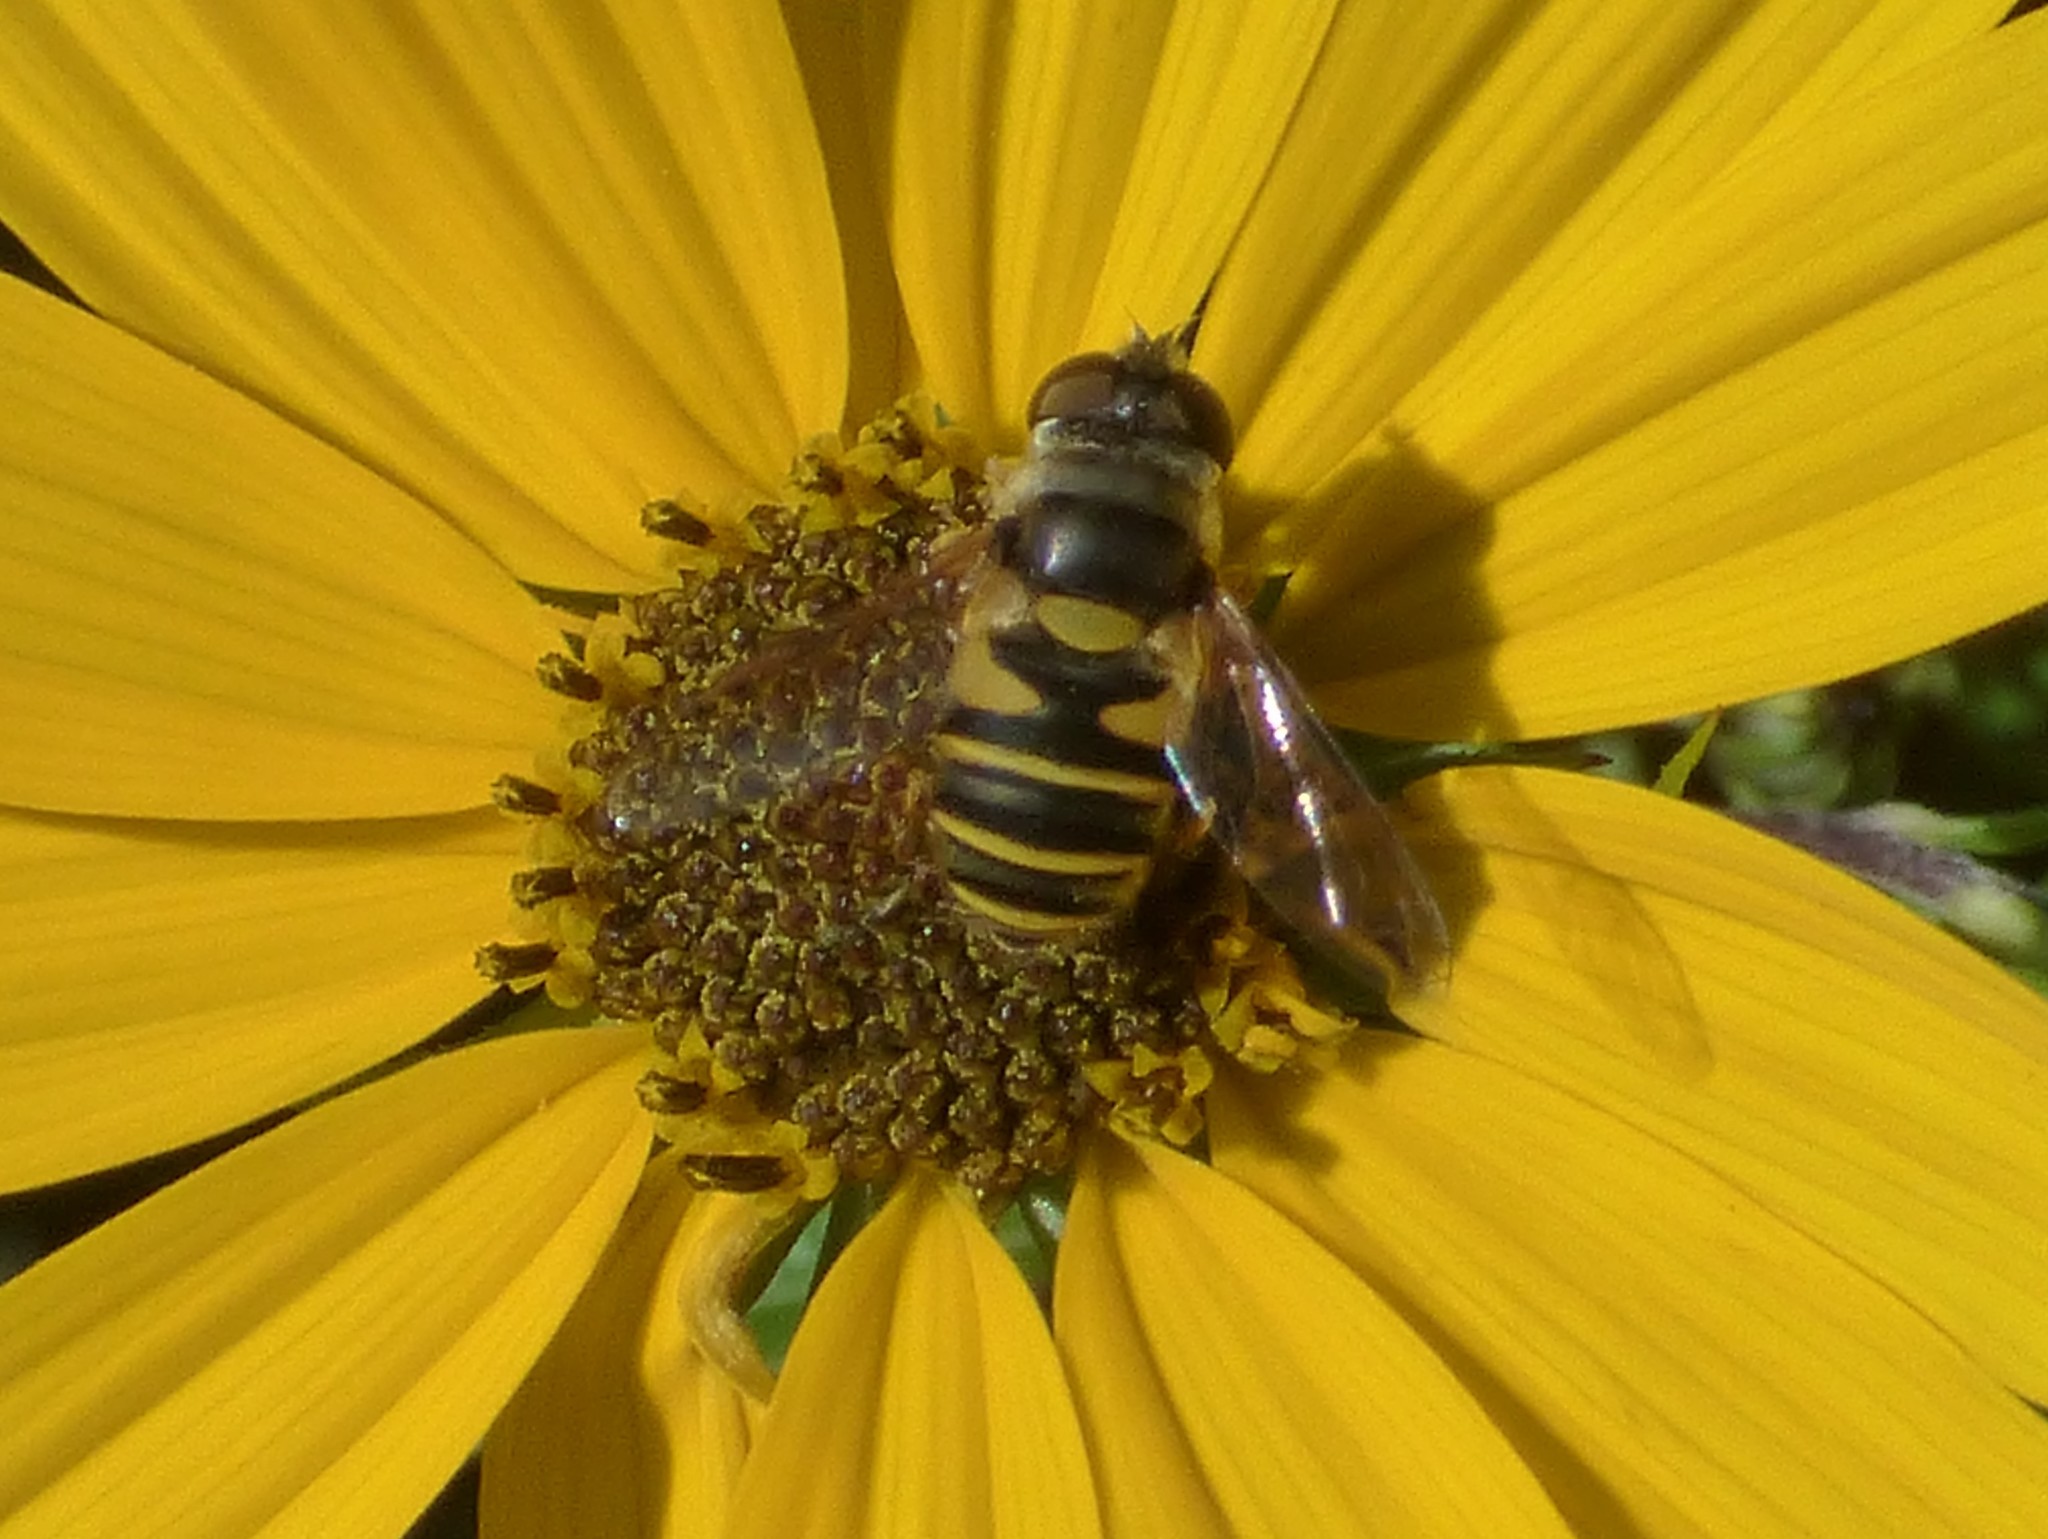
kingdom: Animalia
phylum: Arthropoda
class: Insecta
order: Diptera
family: Syrphidae
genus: Eristalis
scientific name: Eristalis transversa
